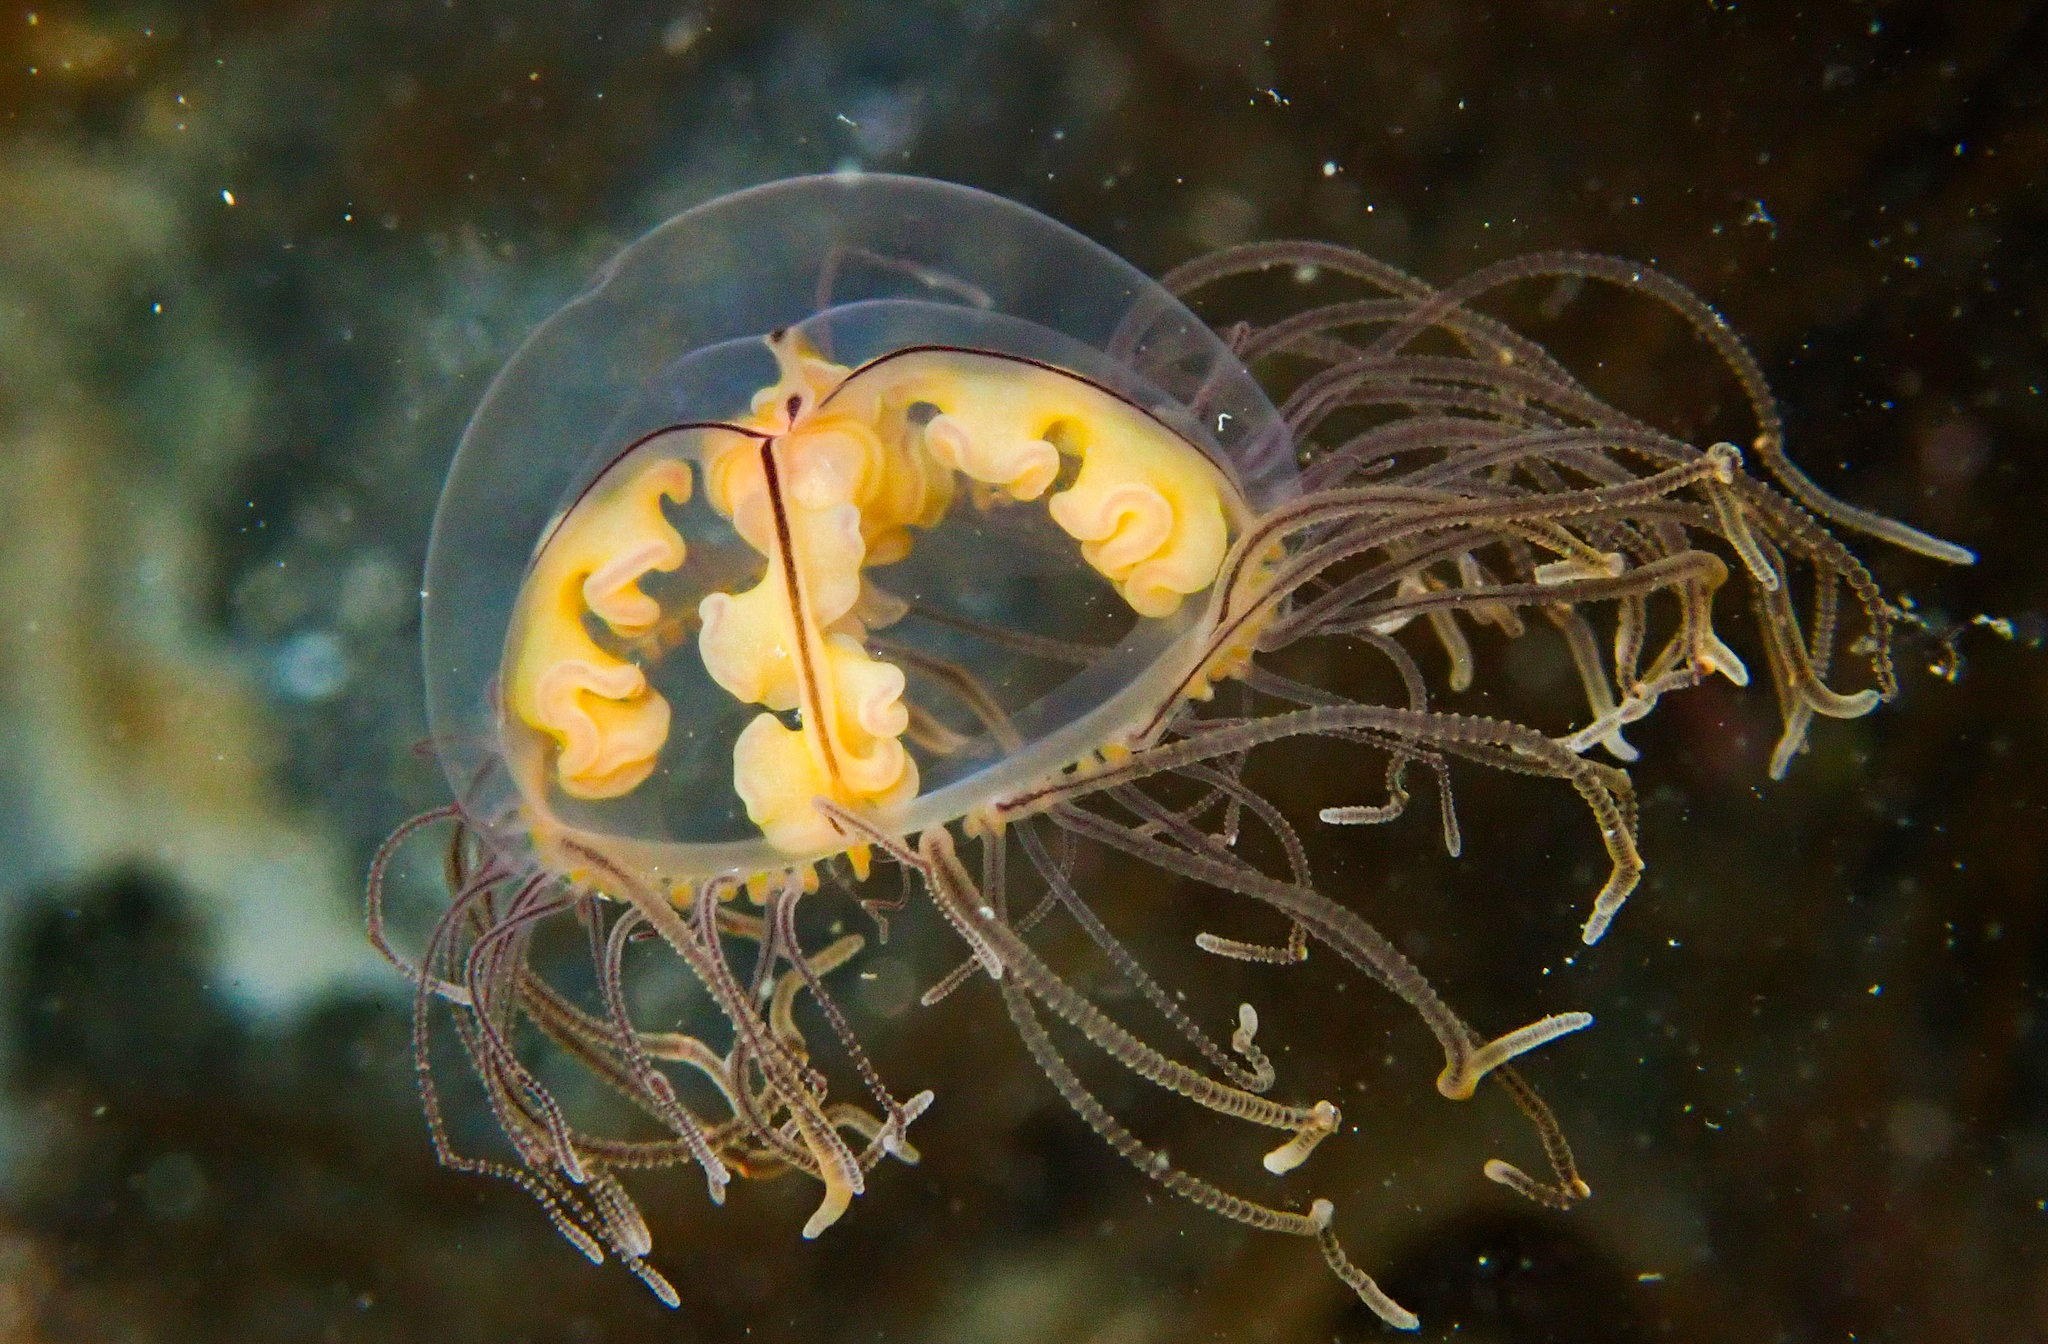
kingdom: Animalia
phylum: Cnidaria
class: Hydrozoa
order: Limnomedusae
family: Olindiidae
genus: Gonionemus
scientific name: Gonionemus vertens
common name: Clinging jellyfish
